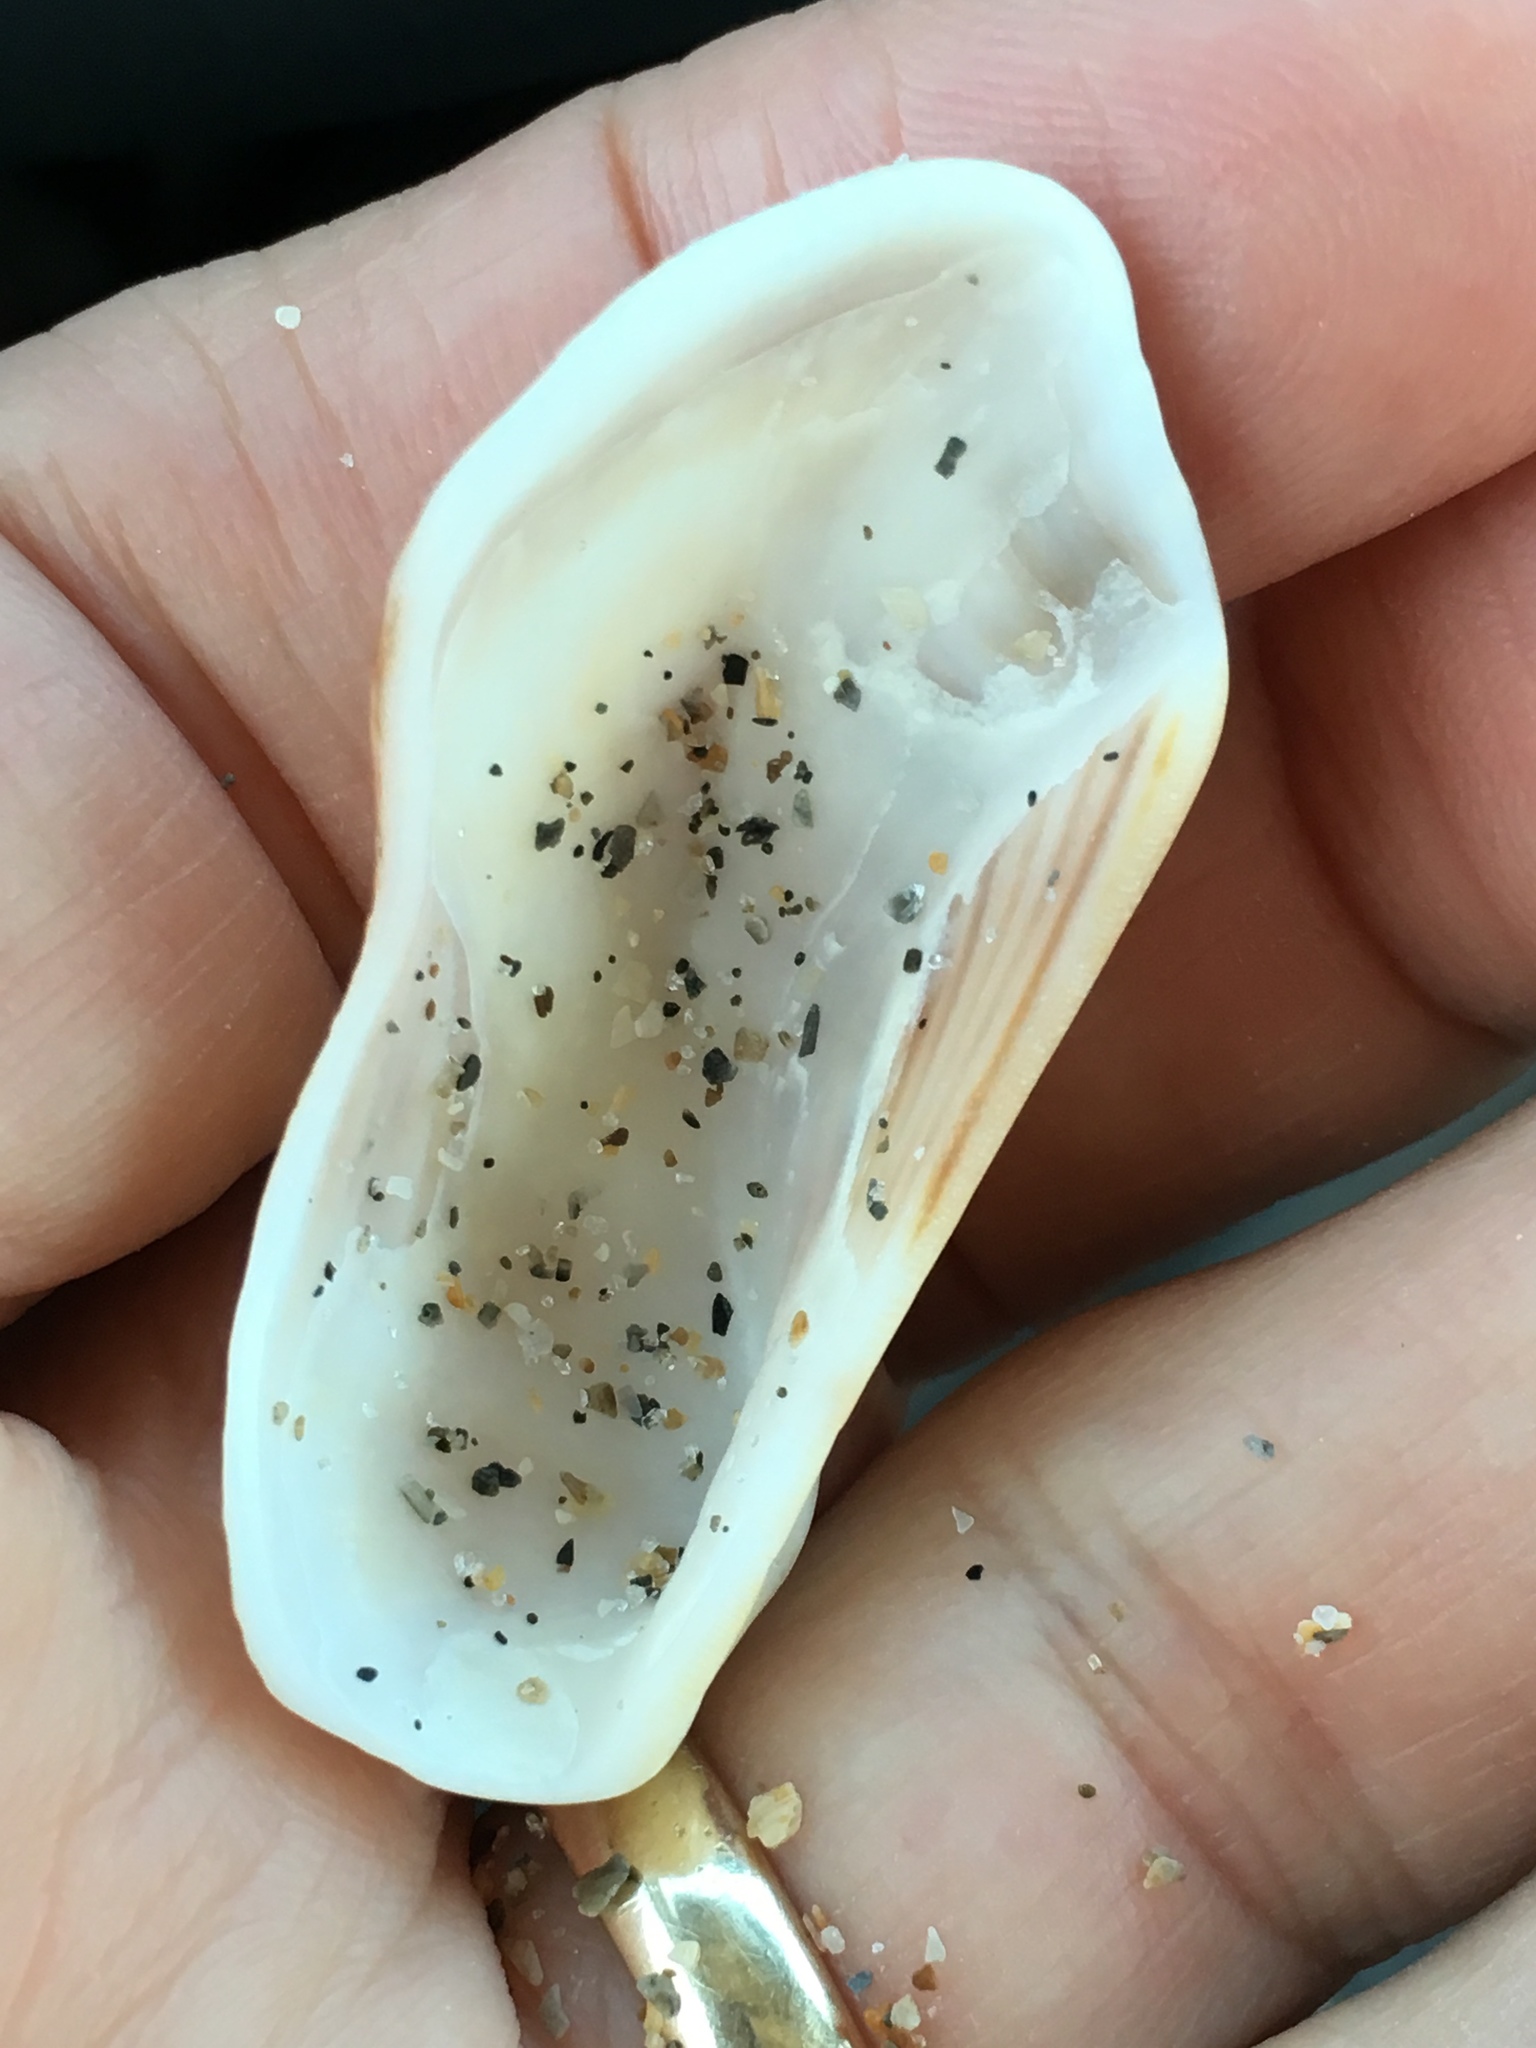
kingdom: Animalia
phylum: Mollusca
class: Bivalvia
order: Arcida
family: Arcidae
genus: Lamarcka
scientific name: Lamarcka imbricata
